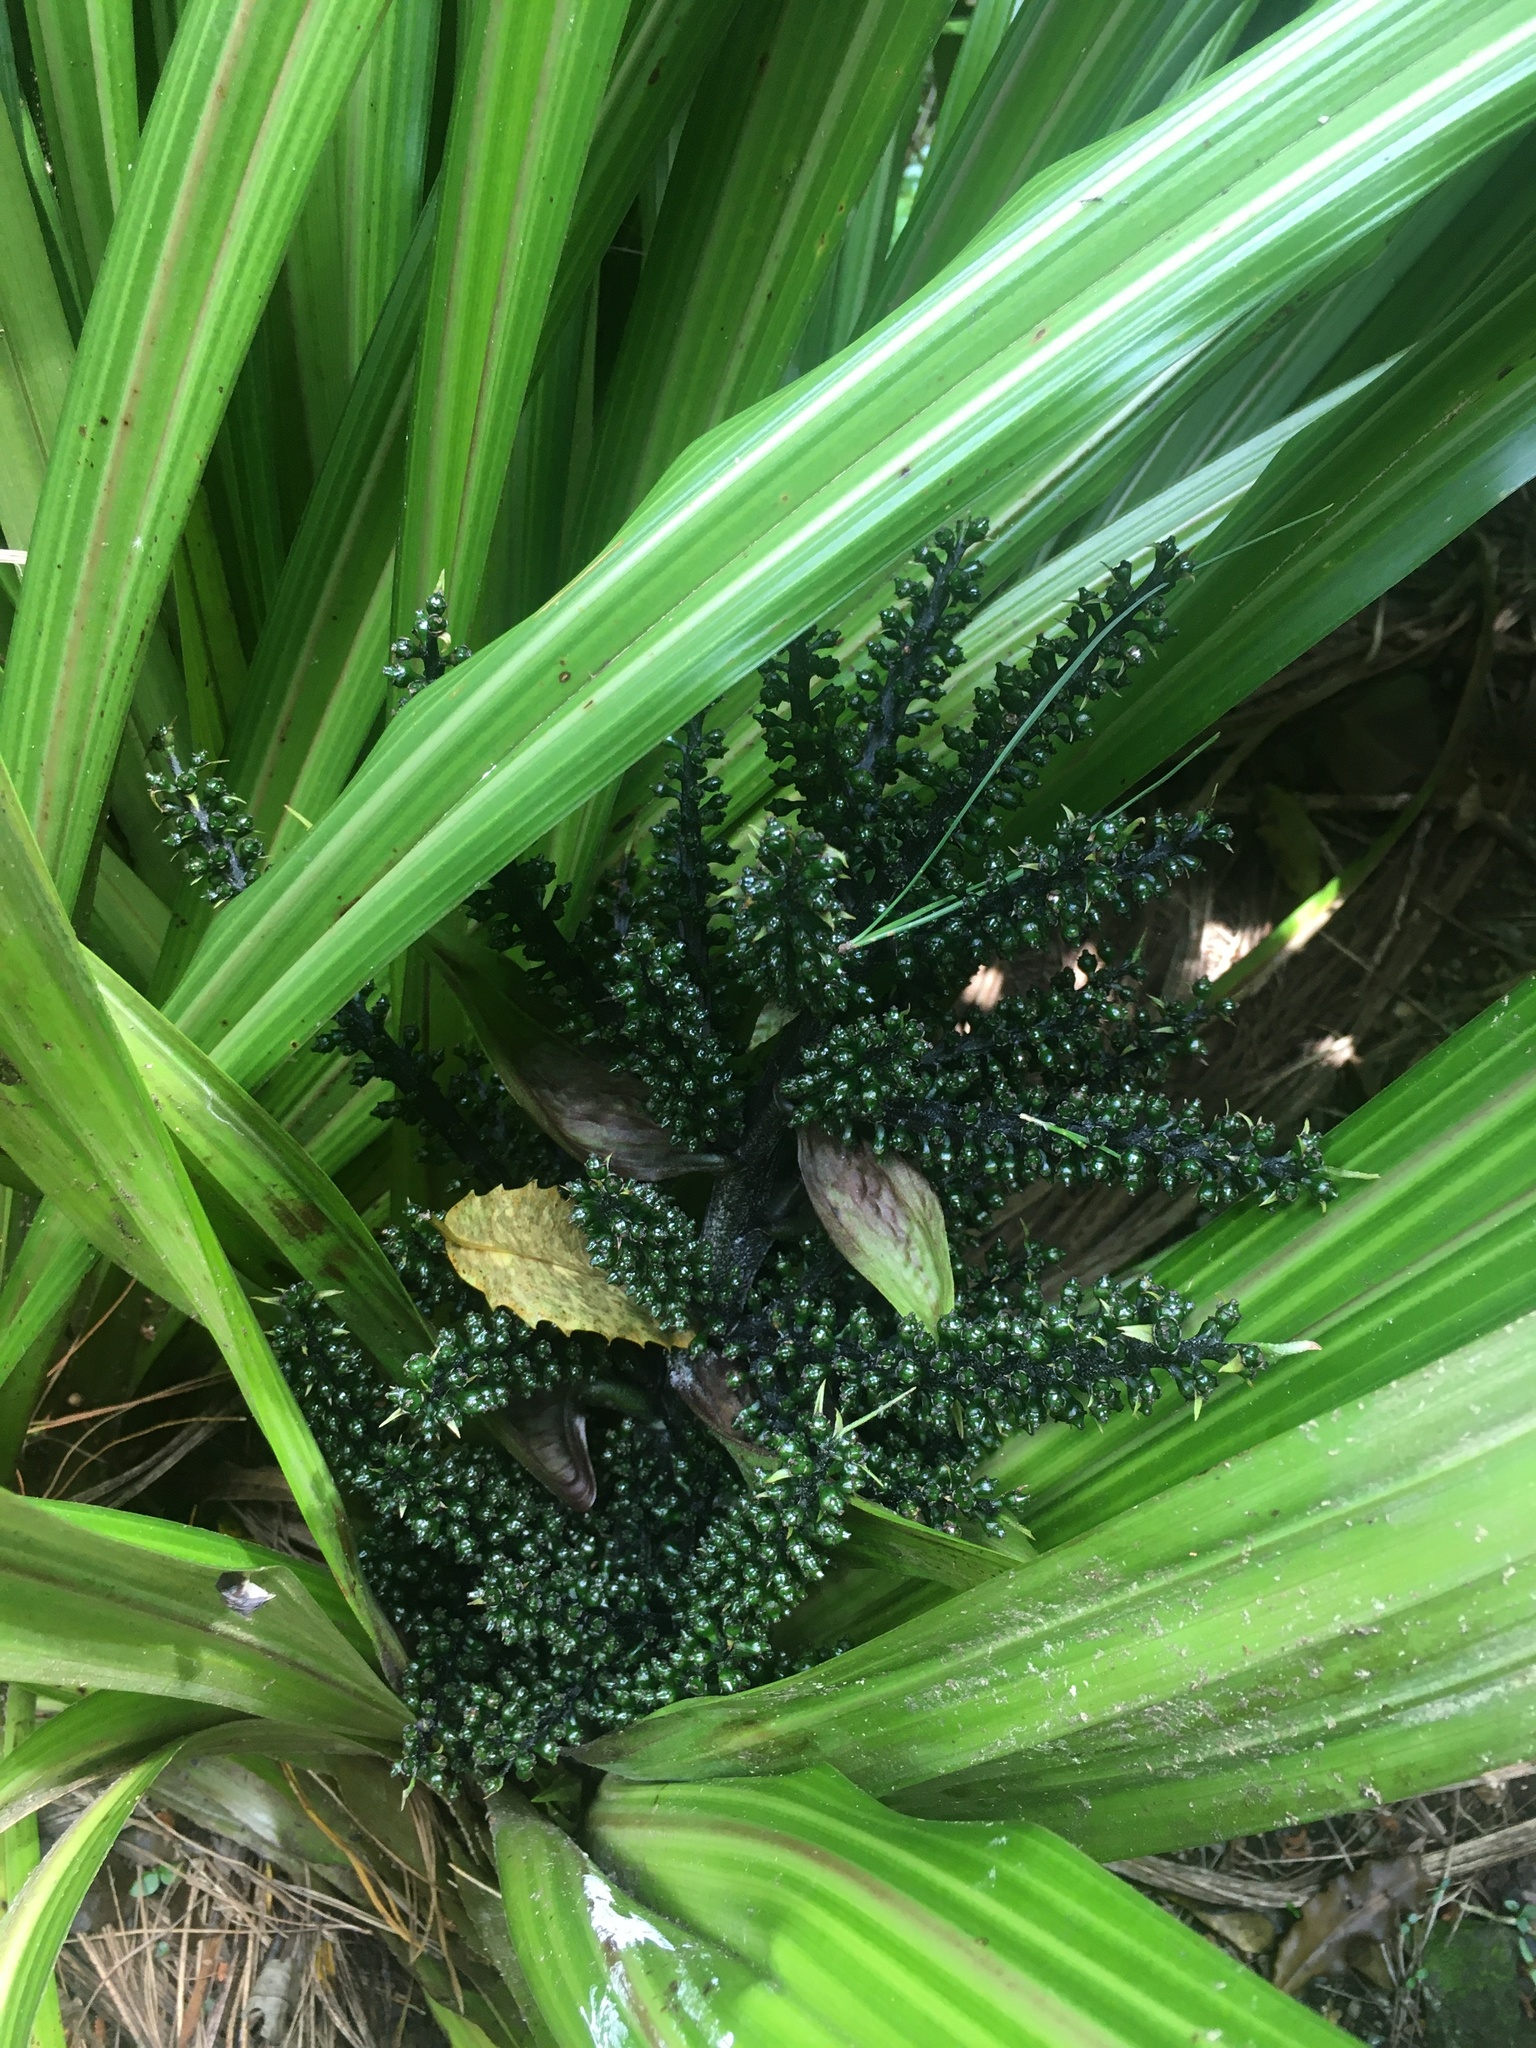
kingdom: Plantae
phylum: Tracheophyta
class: Liliopsida
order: Asparagales
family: Asteliaceae
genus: Astelia
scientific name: Astelia fragrans
